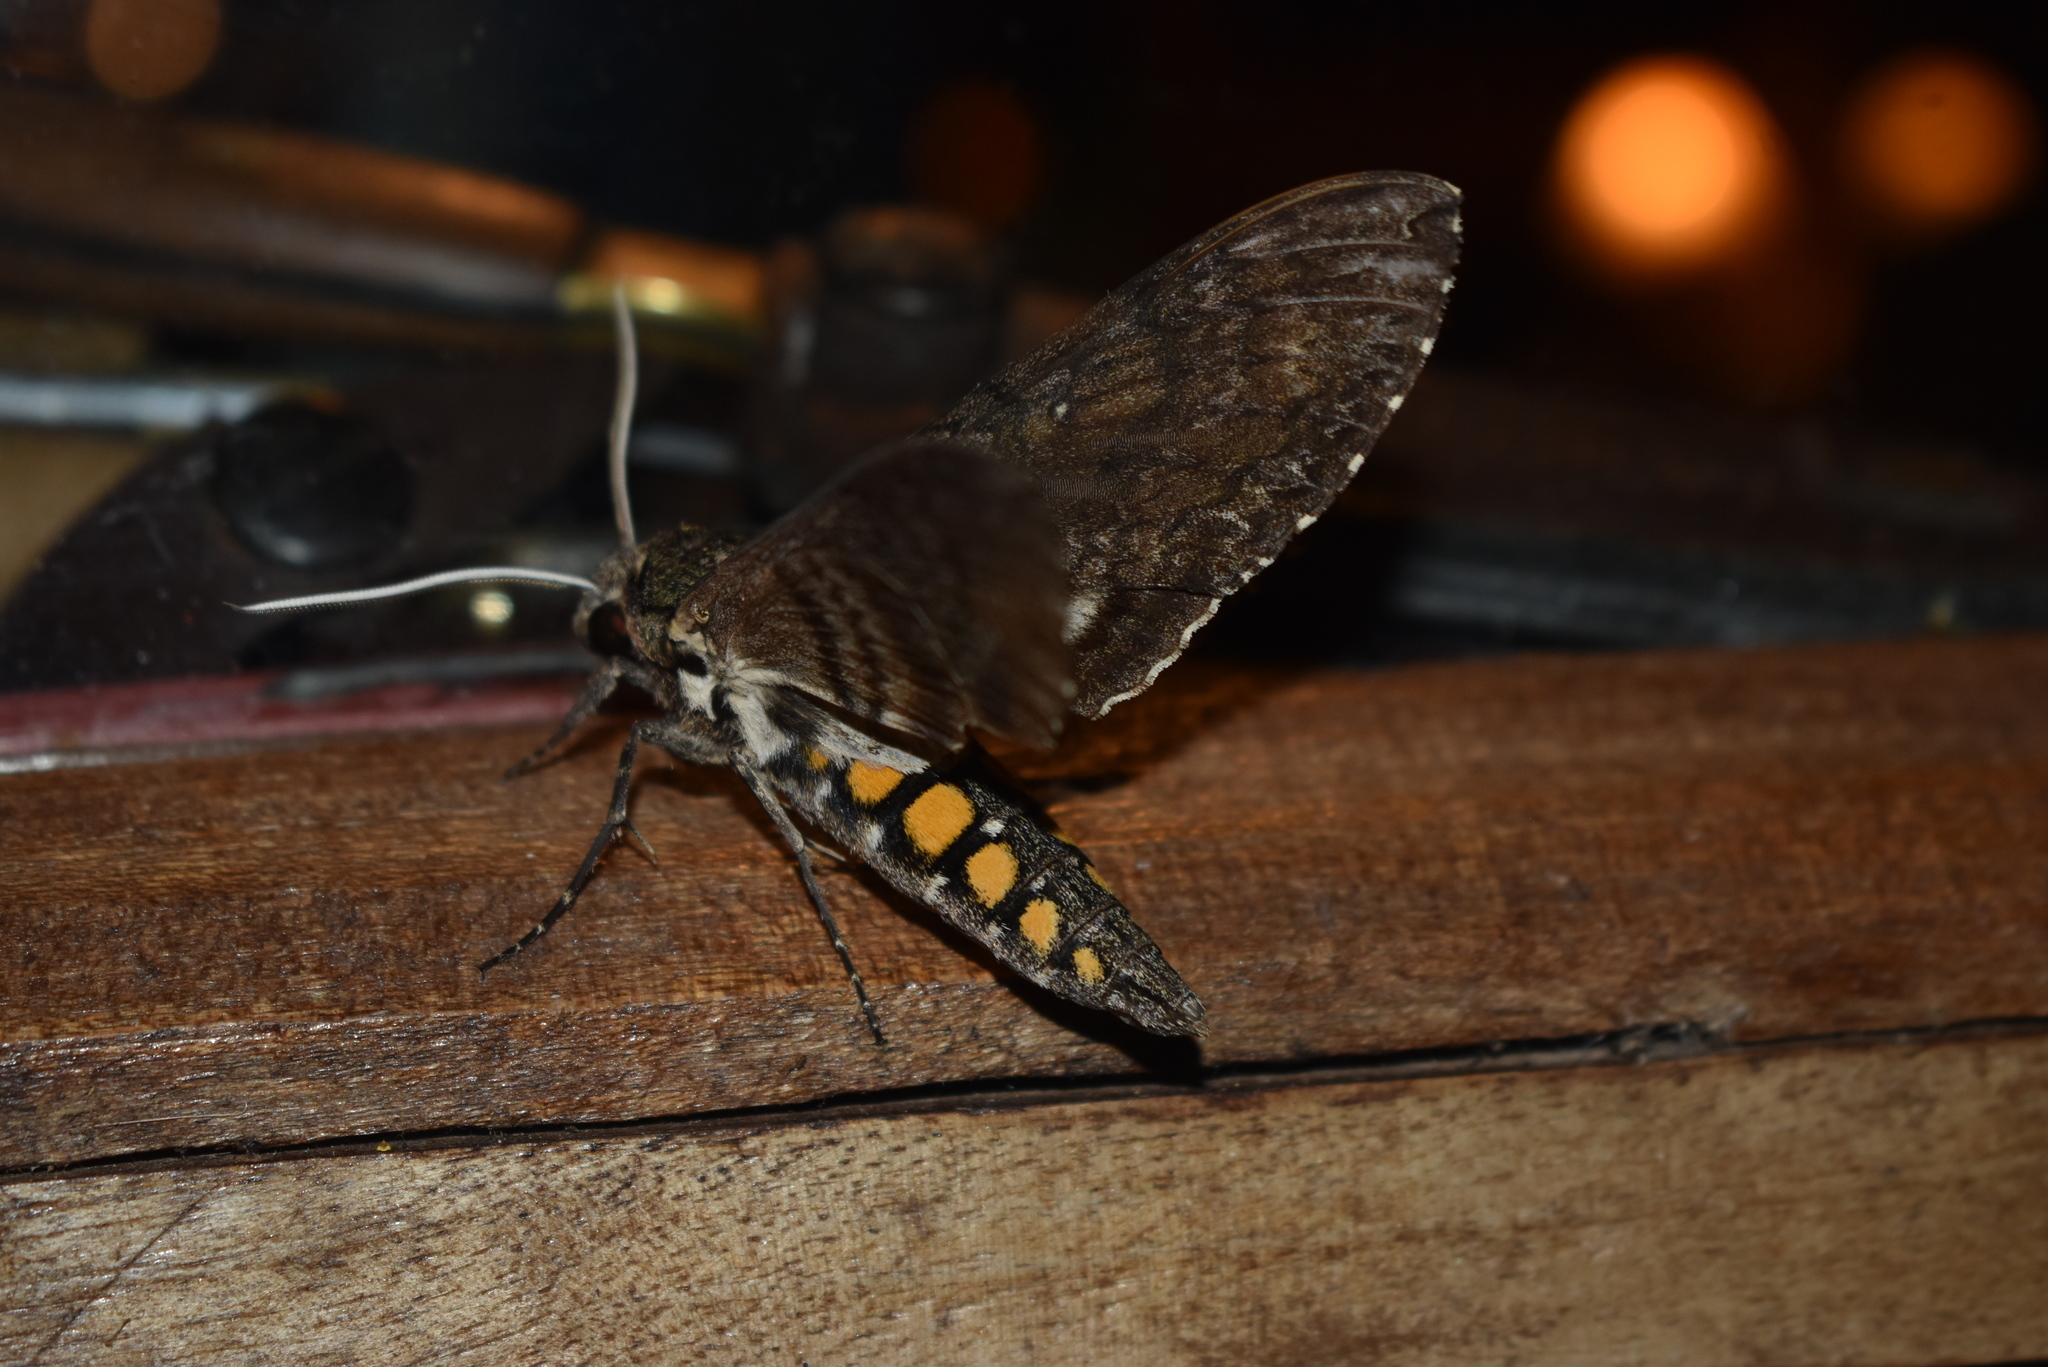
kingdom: Animalia
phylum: Arthropoda
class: Insecta
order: Lepidoptera
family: Sphingidae
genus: Manduca
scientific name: Manduca afflicta
